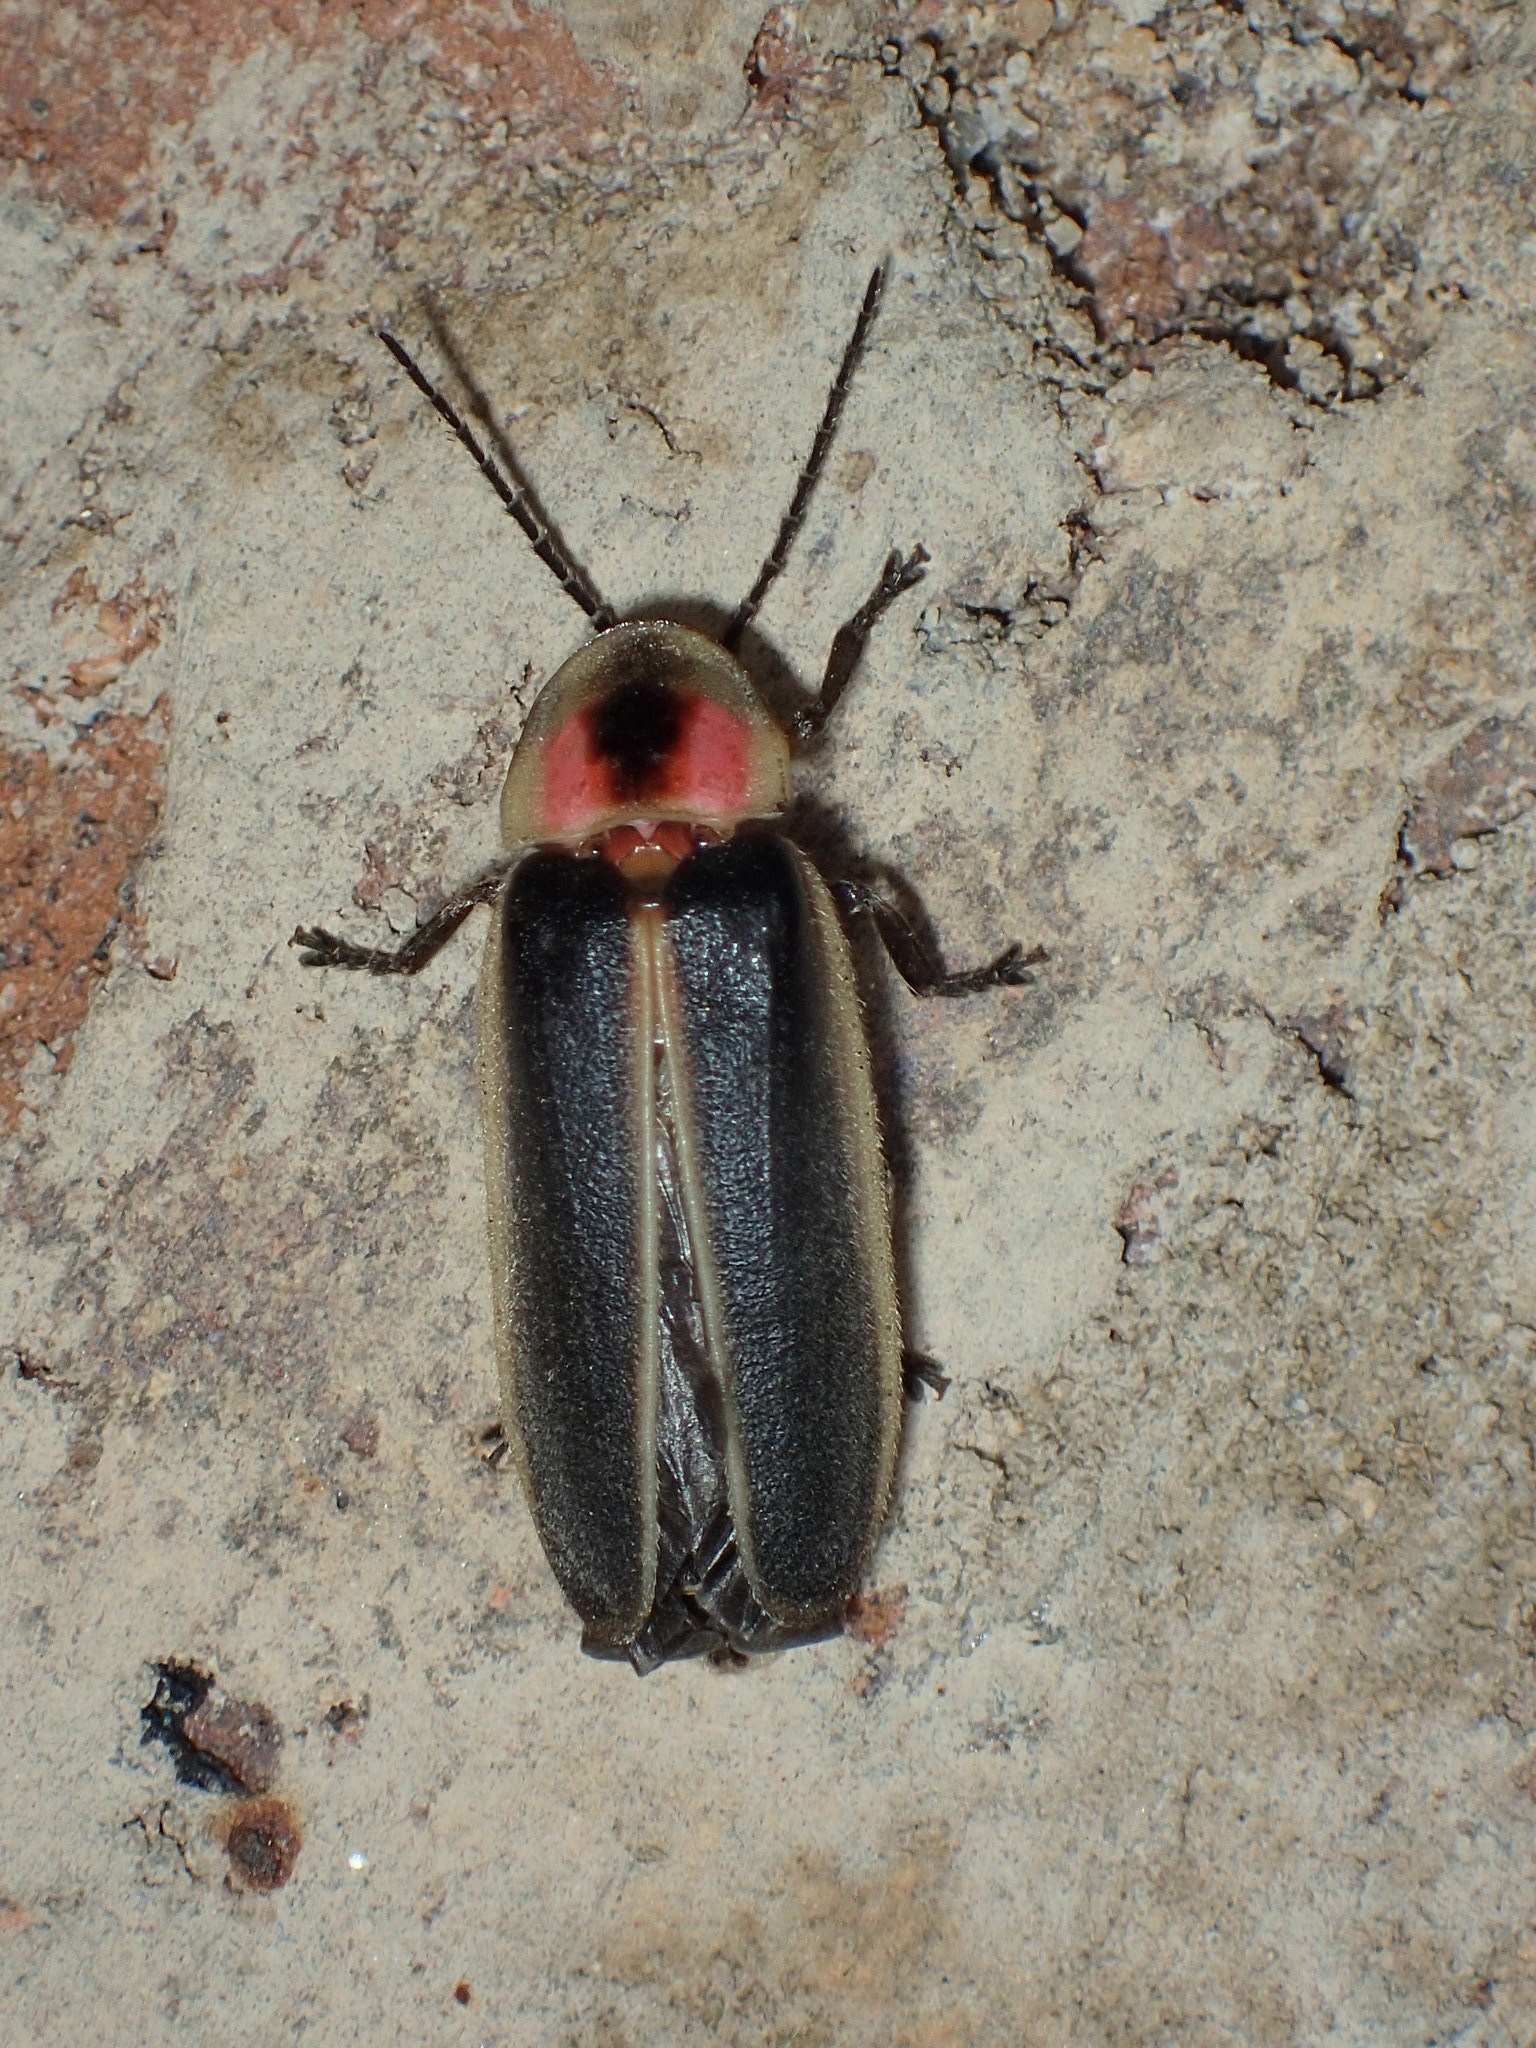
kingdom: Animalia
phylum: Arthropoda
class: Insecta
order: Coleoptera
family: Lampyridae
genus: Photinus
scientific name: Photinus pyralis
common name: Big dipper firefly
